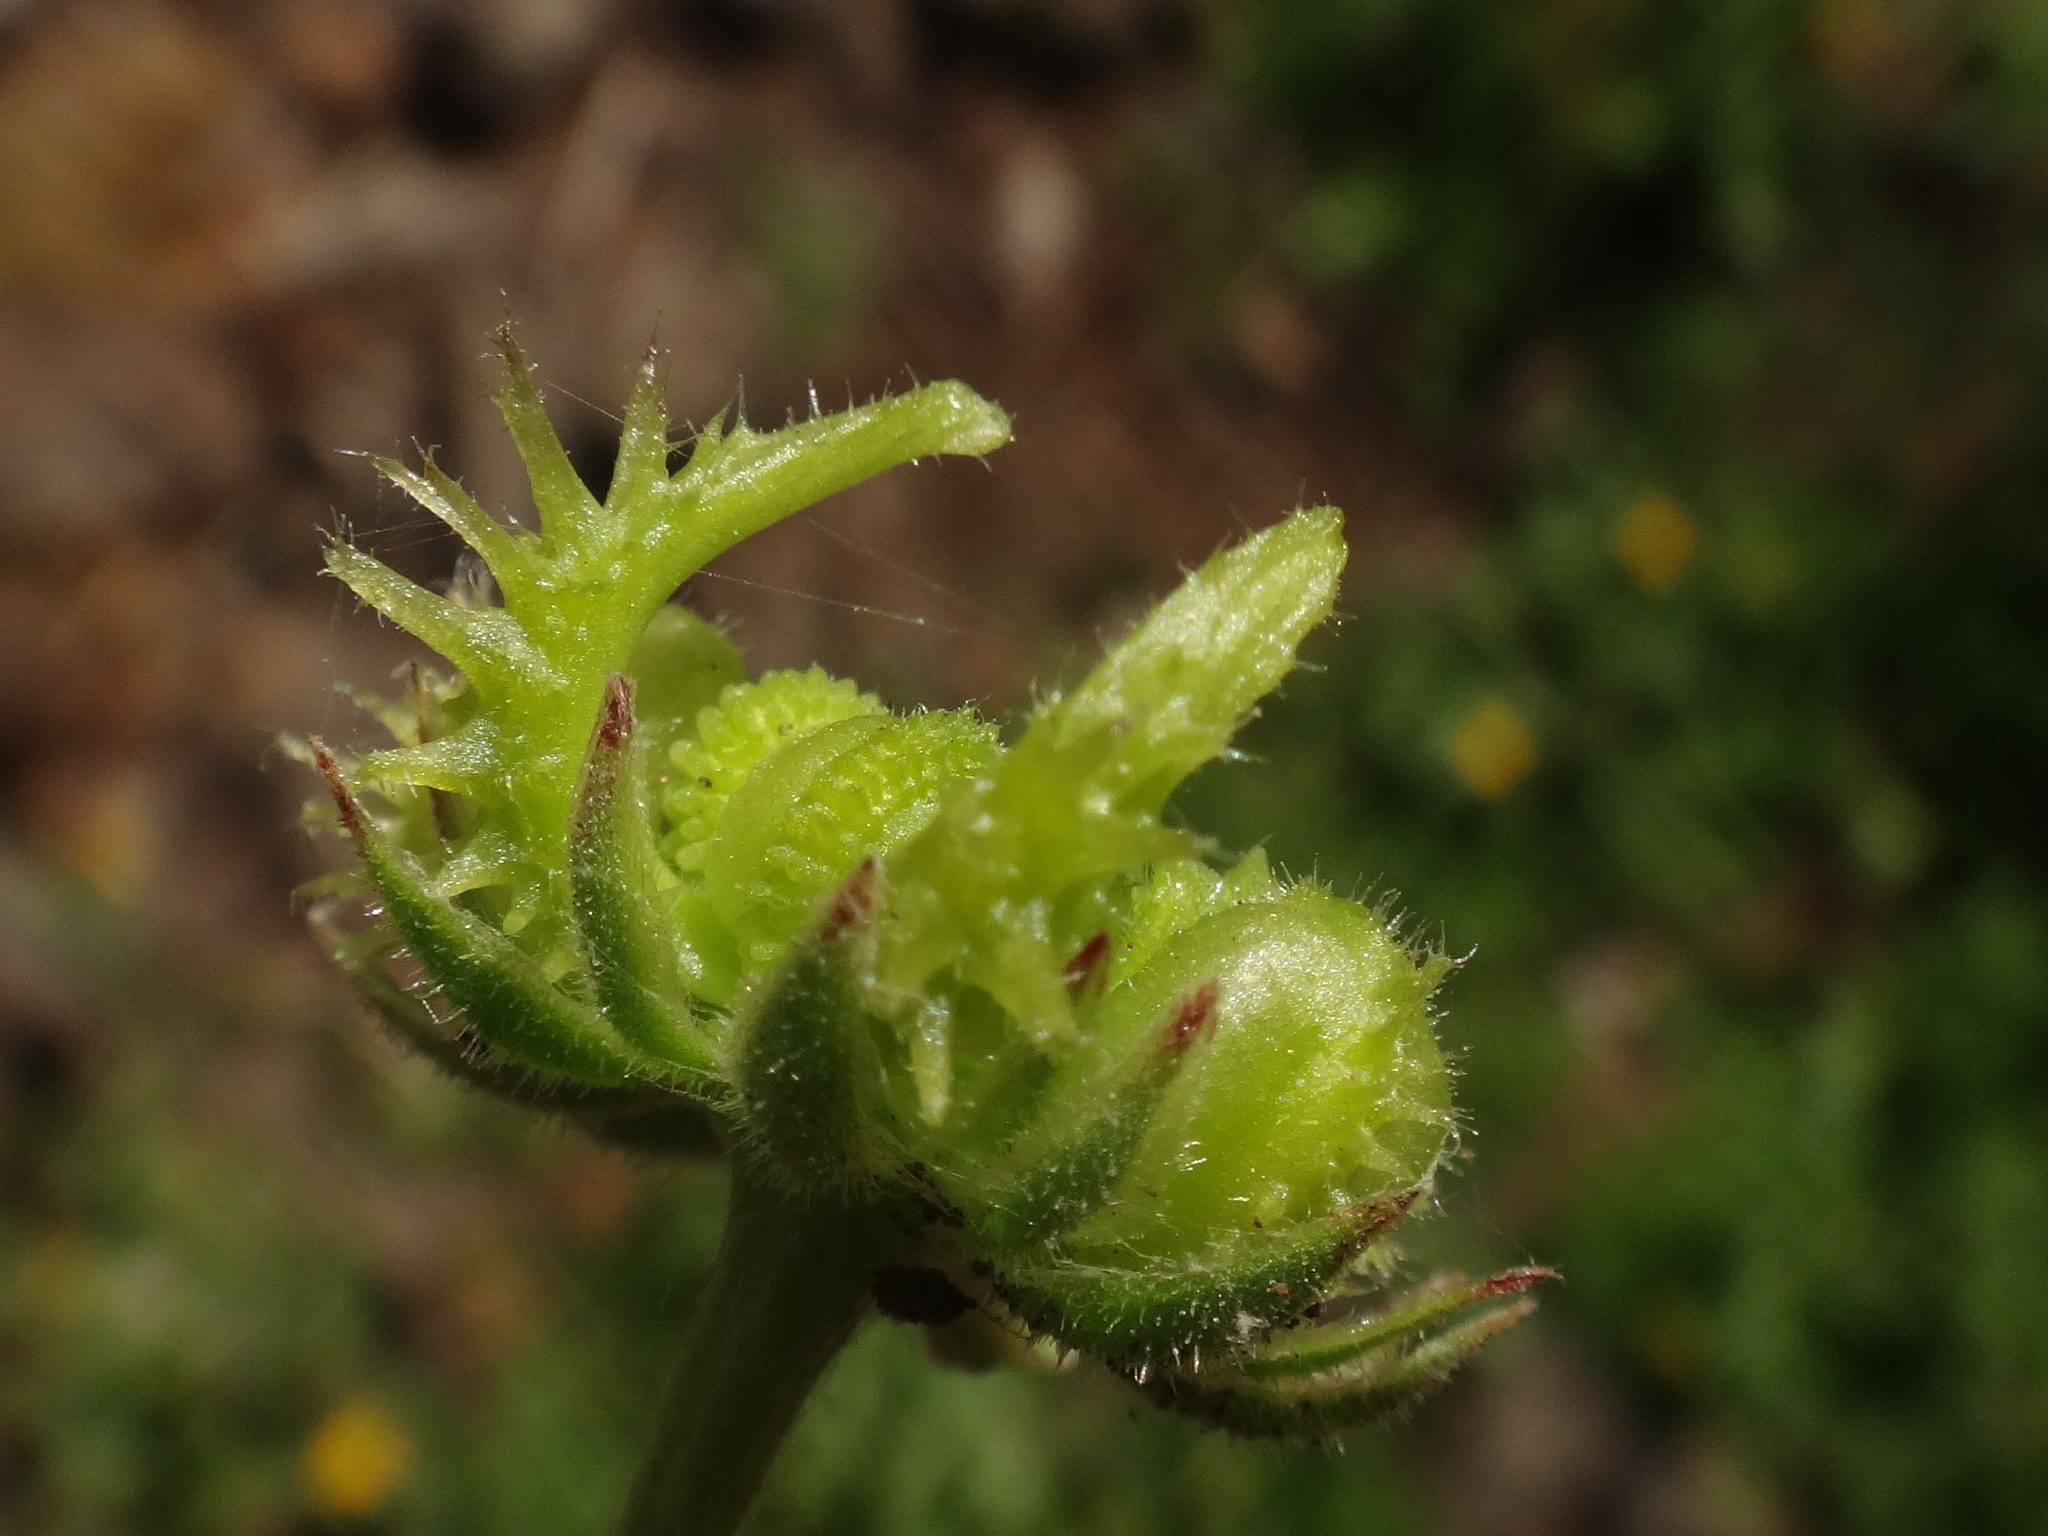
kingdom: Plantae
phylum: Tracheophyta
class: Magnoliopsida
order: Asterales
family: Asteraceae
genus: Calendula
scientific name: Calendula arvensis
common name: Field marigold
